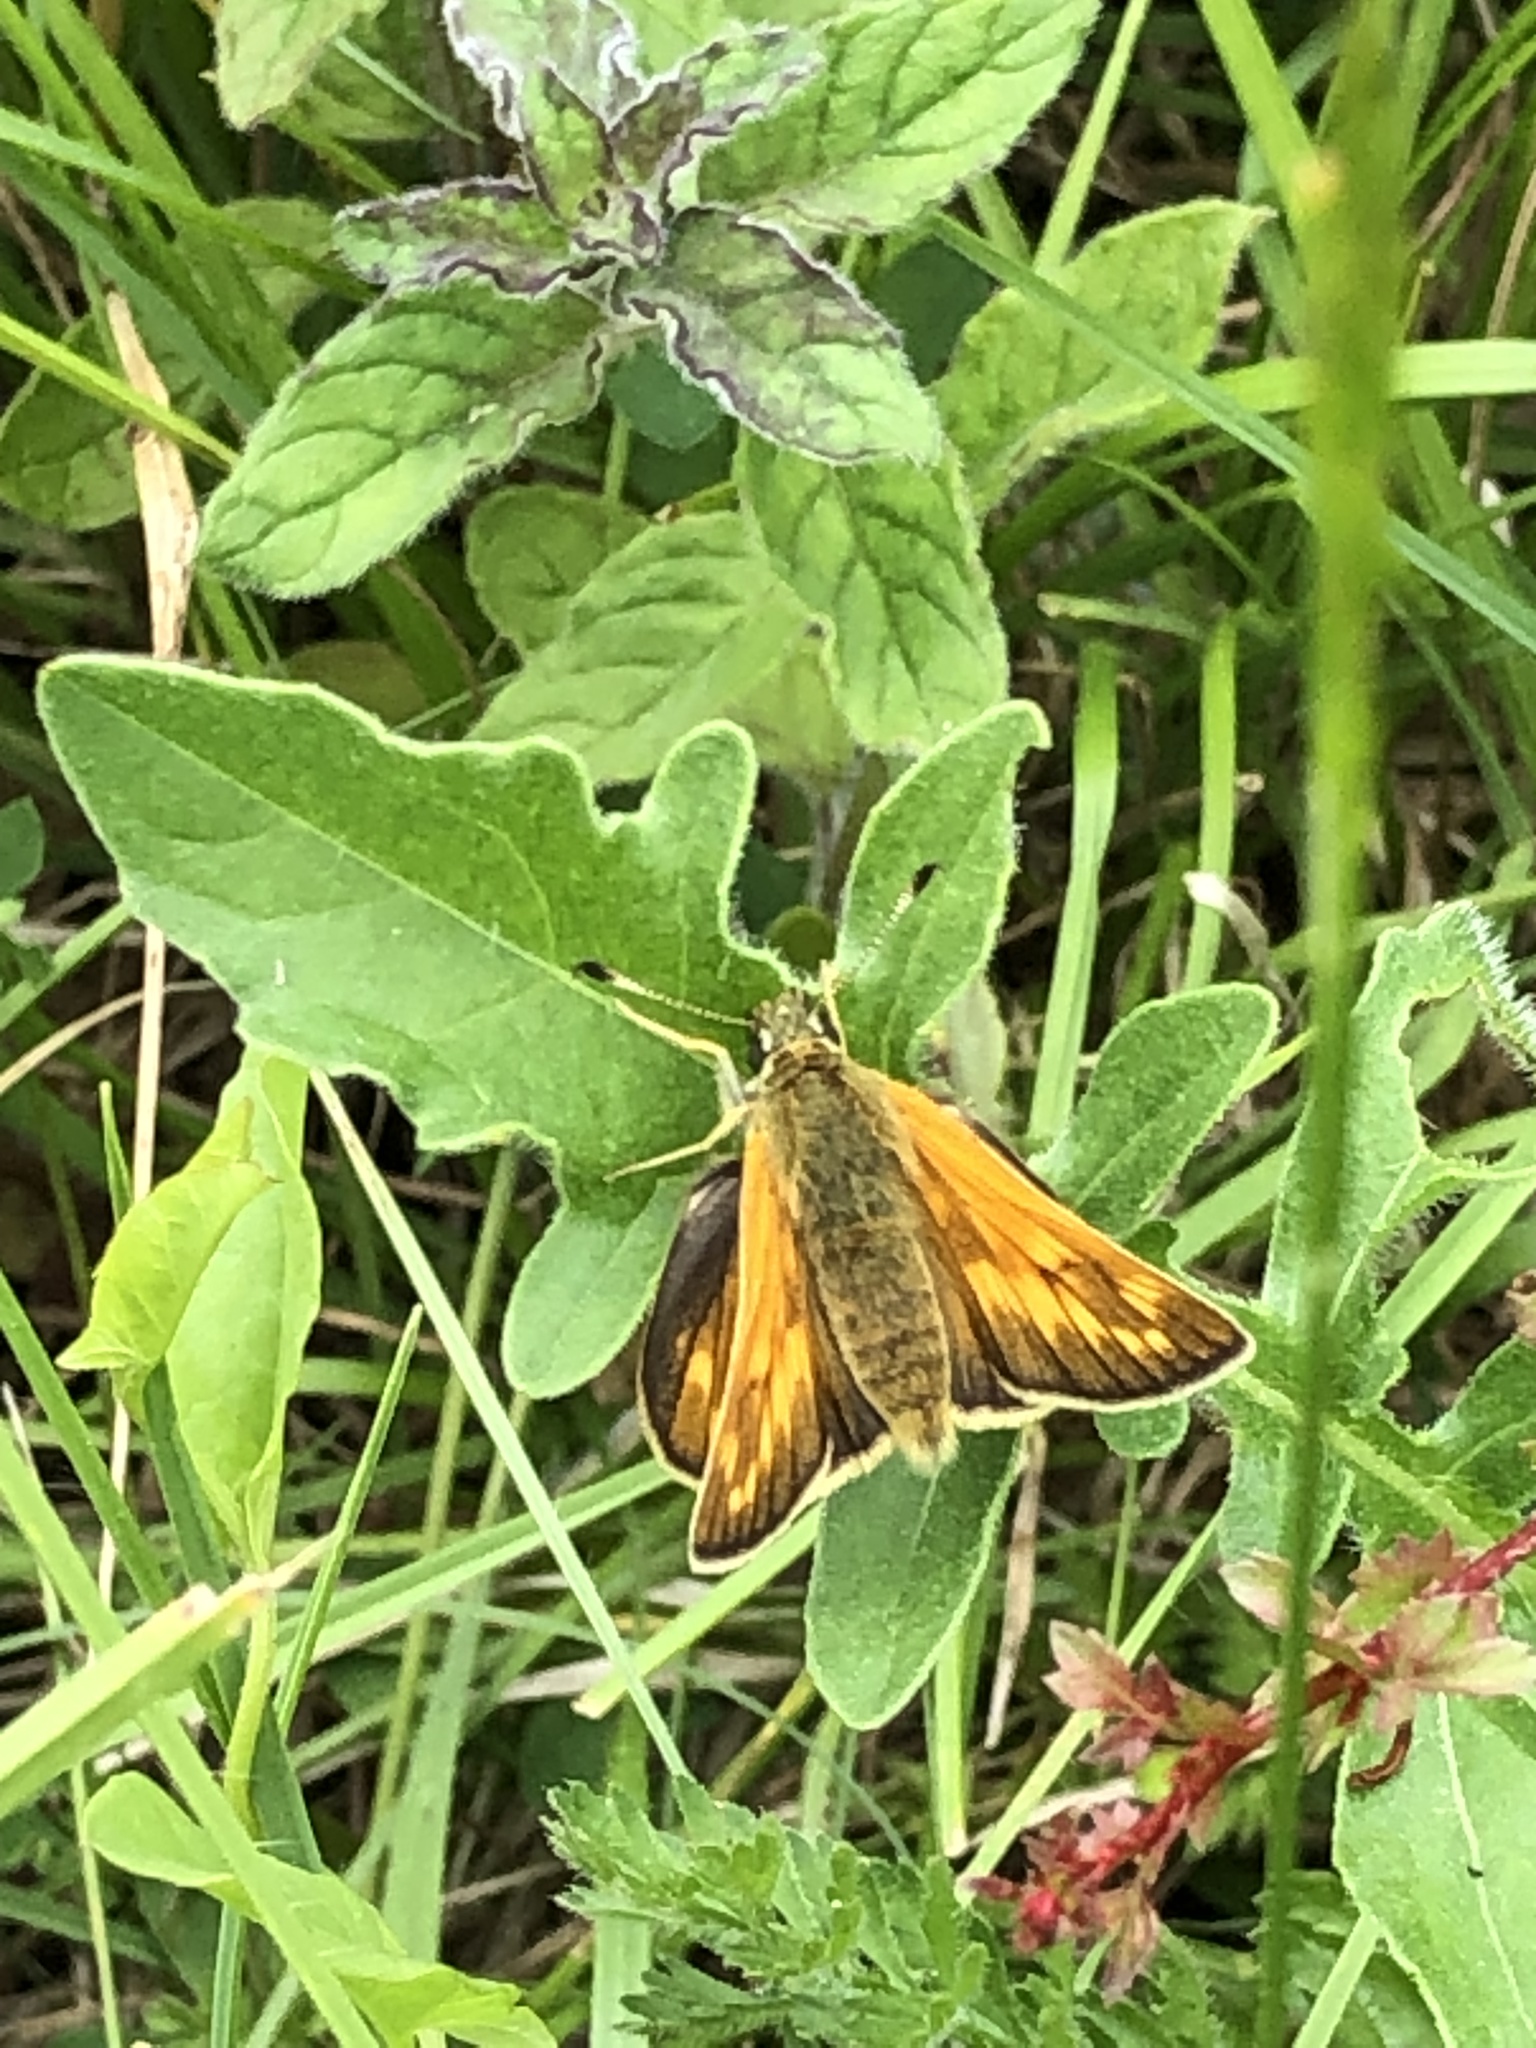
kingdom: Animalia
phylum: Arthropoda
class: Insecta
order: Lepidoptera
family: Hesperiidae
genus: Ochlodes
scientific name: Ochlodes venata
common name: Large skipper
